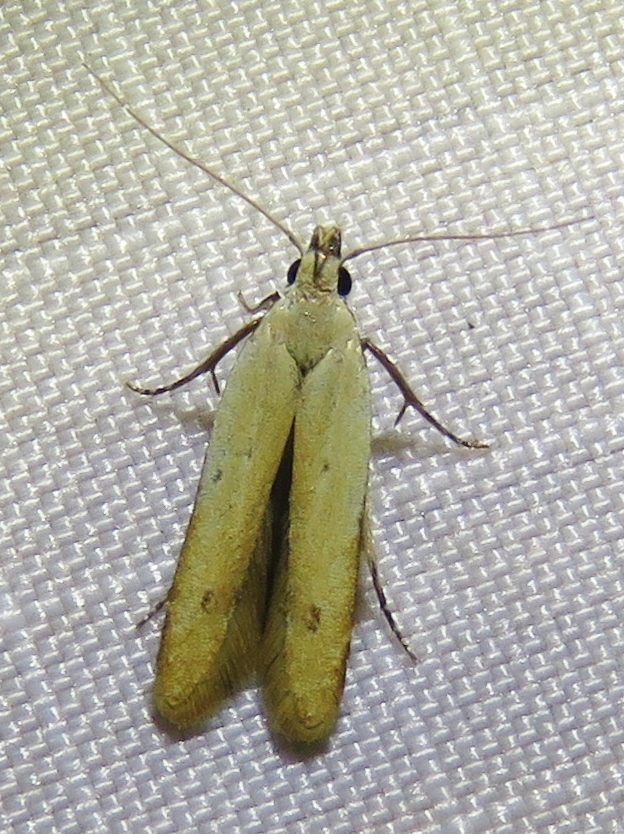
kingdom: Animalia
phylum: Arthropoda
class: Insecta
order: Lepidoptera
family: Gelechiidae
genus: Mesophleps
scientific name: Mesophleps adustipennis
